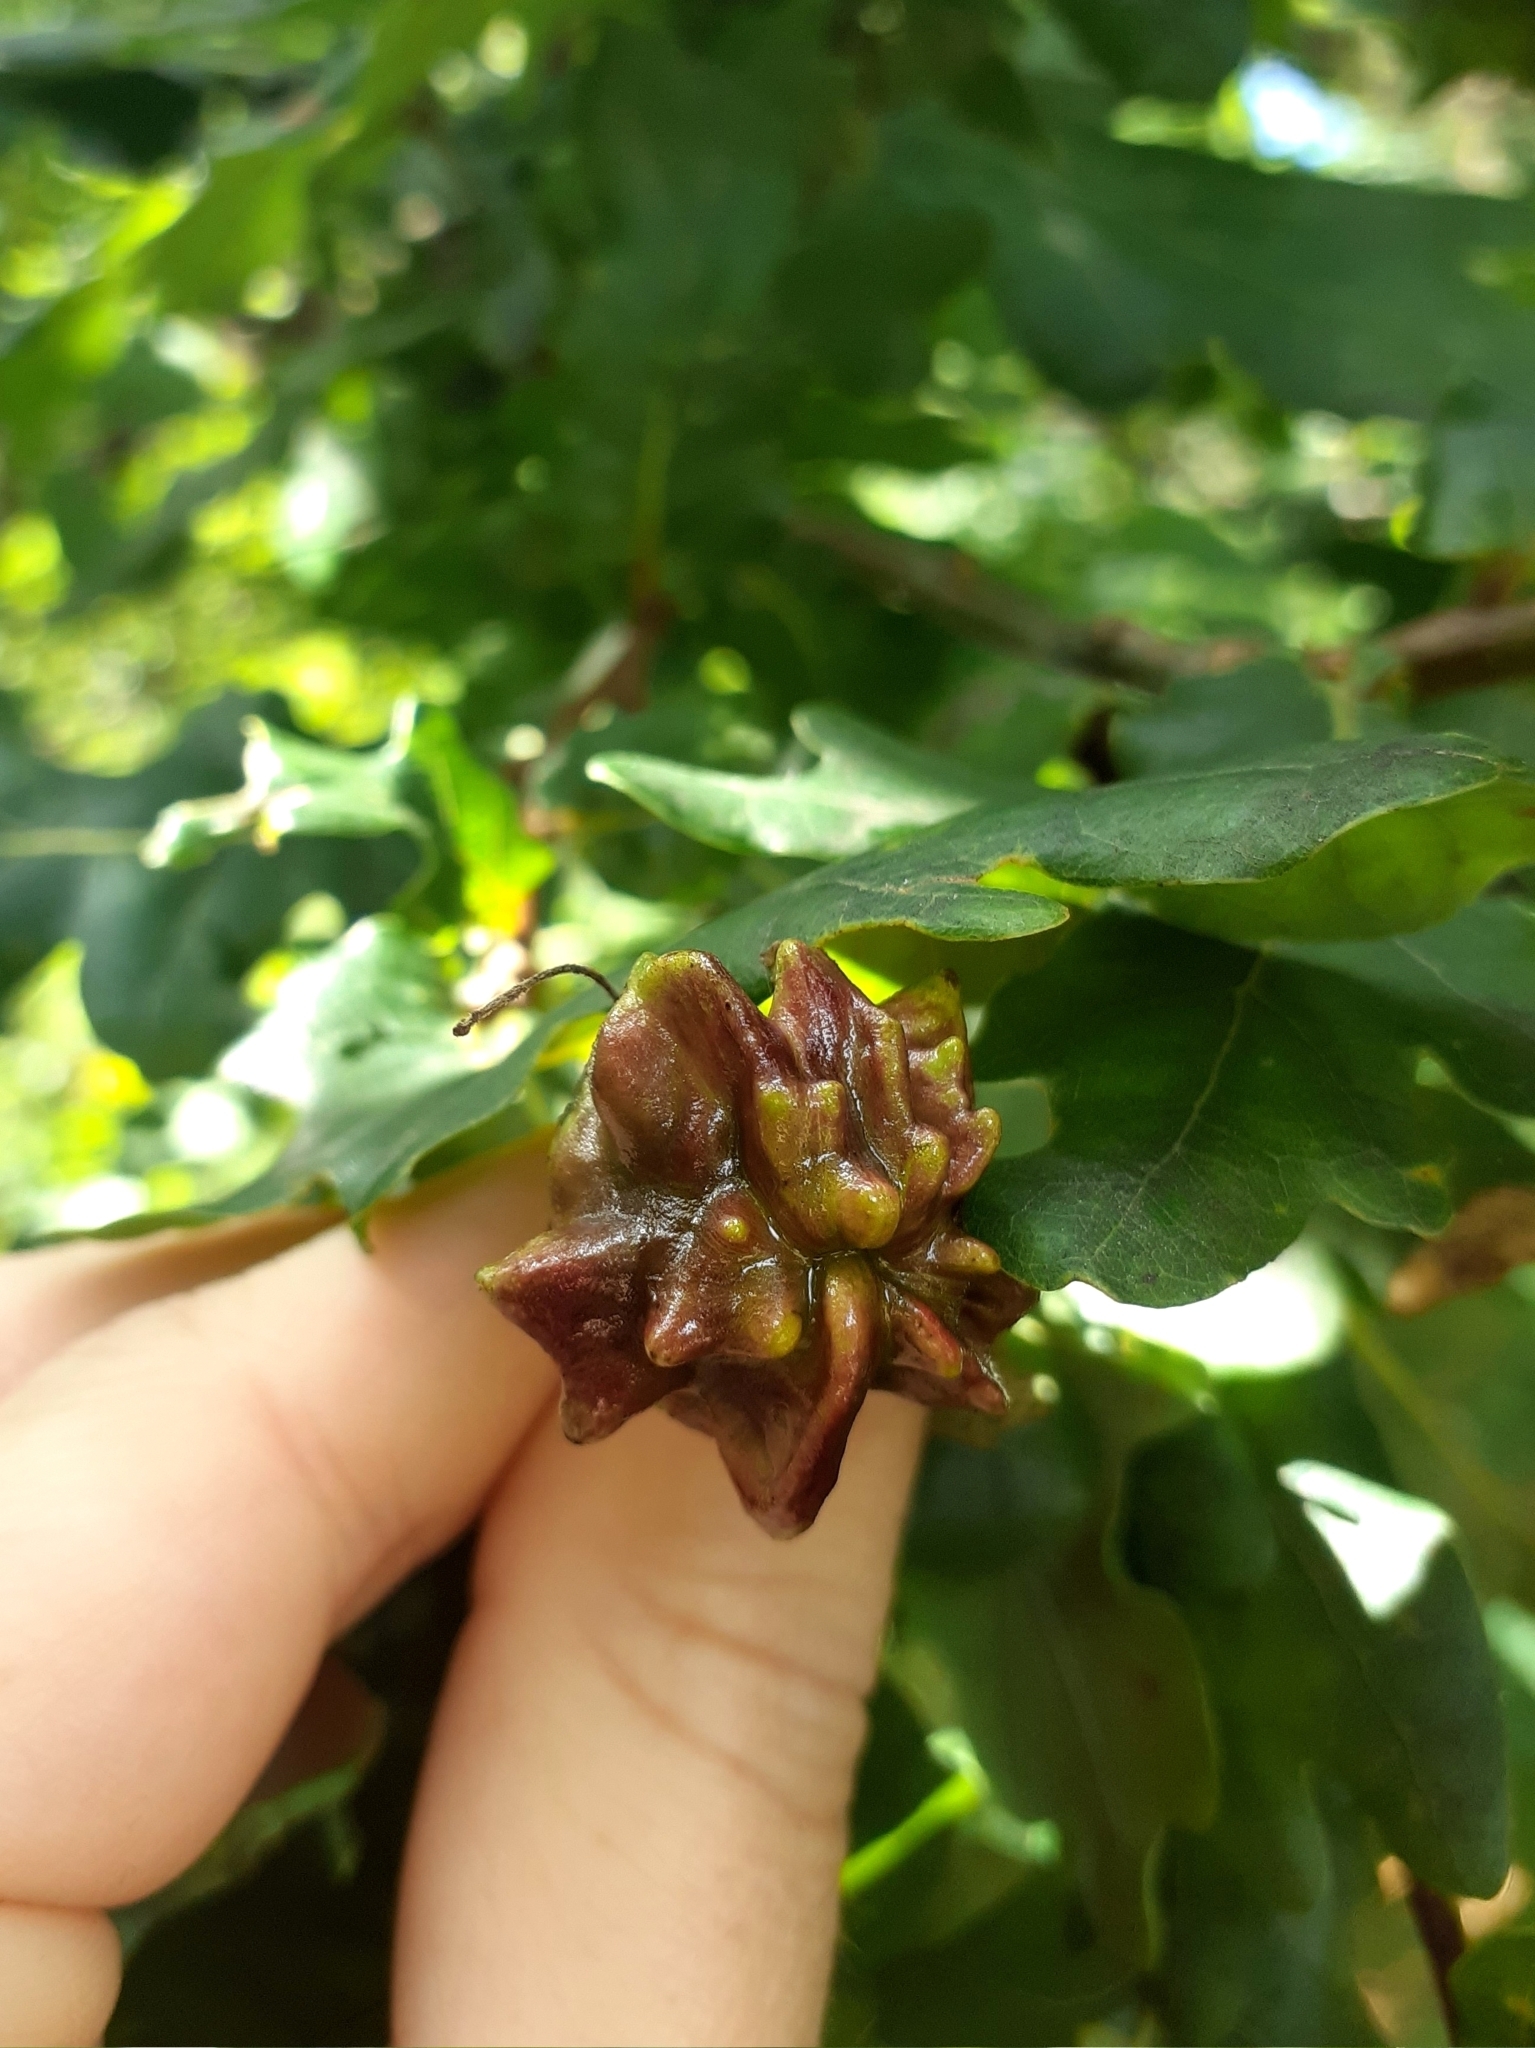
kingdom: Animalia
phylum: Arthropoda
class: Insecta
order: Hymenoptera
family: Cynipidae
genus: Andricus
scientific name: Andricus quercuscalicis
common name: Knopper gall
